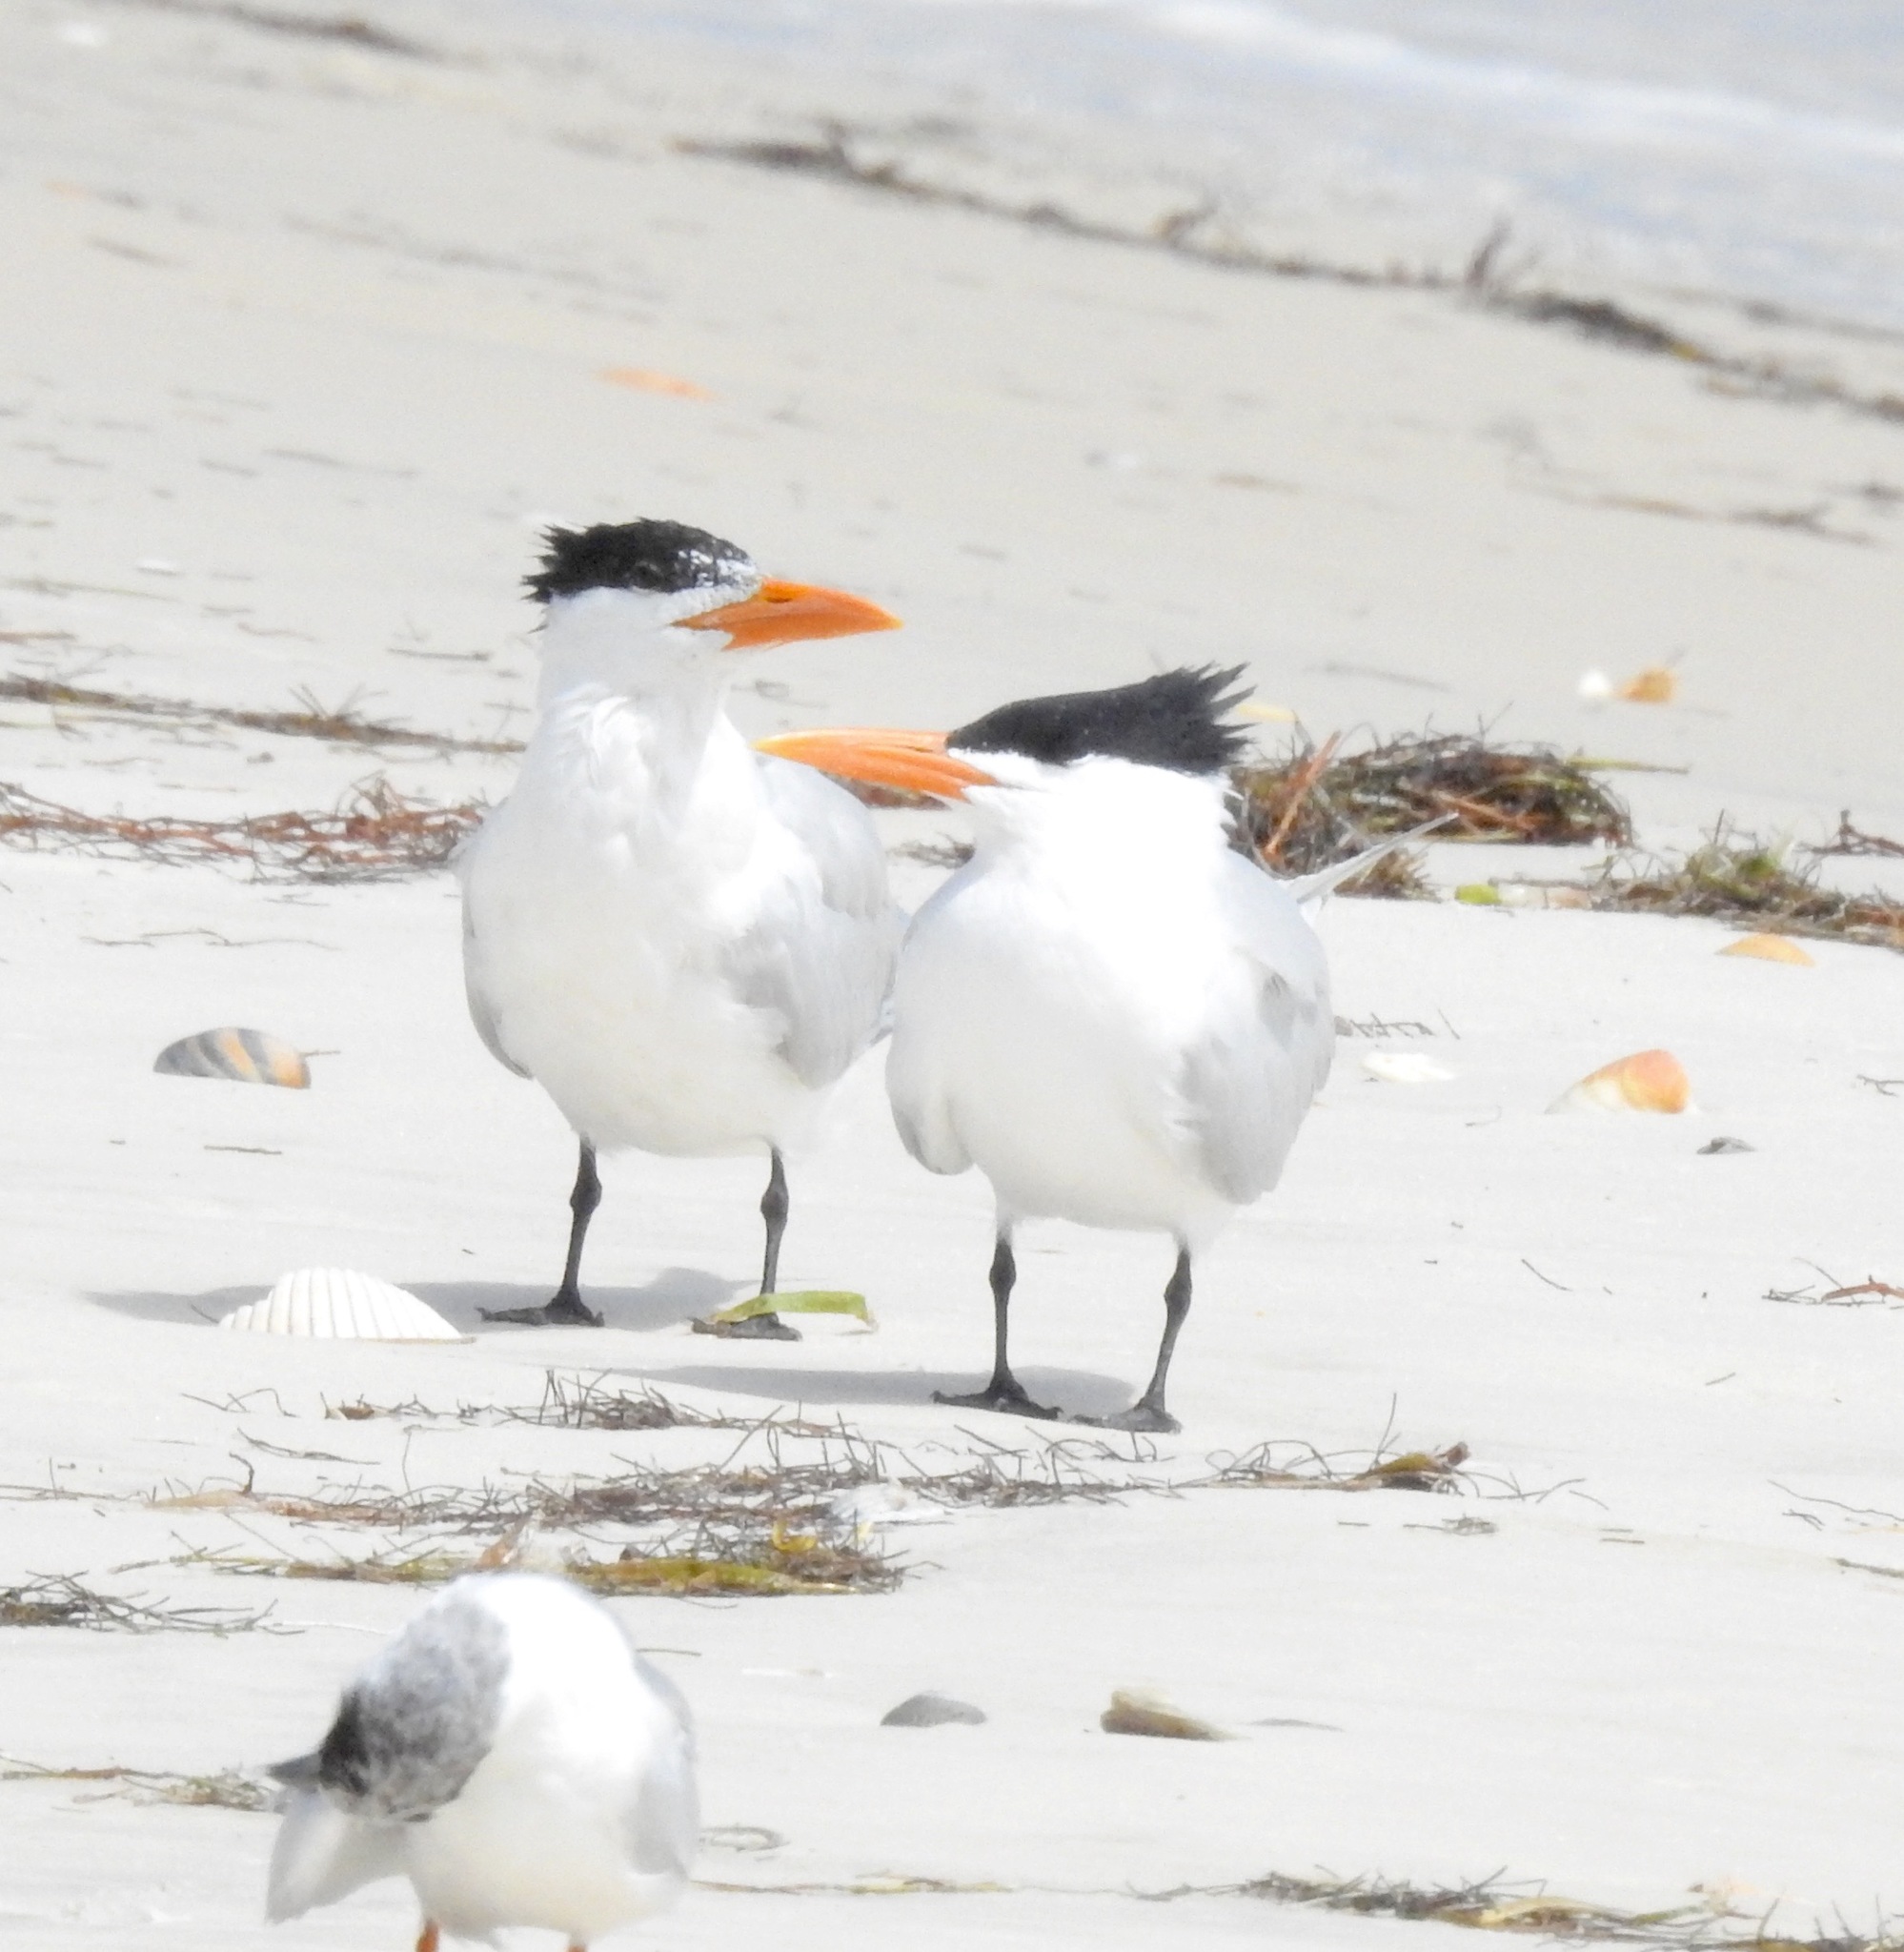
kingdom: Animalia
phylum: Chordata
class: Aves
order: Charadriiformes
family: Laridae
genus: Thalasseus
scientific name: Thalasseus maximus
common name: Royal tern
